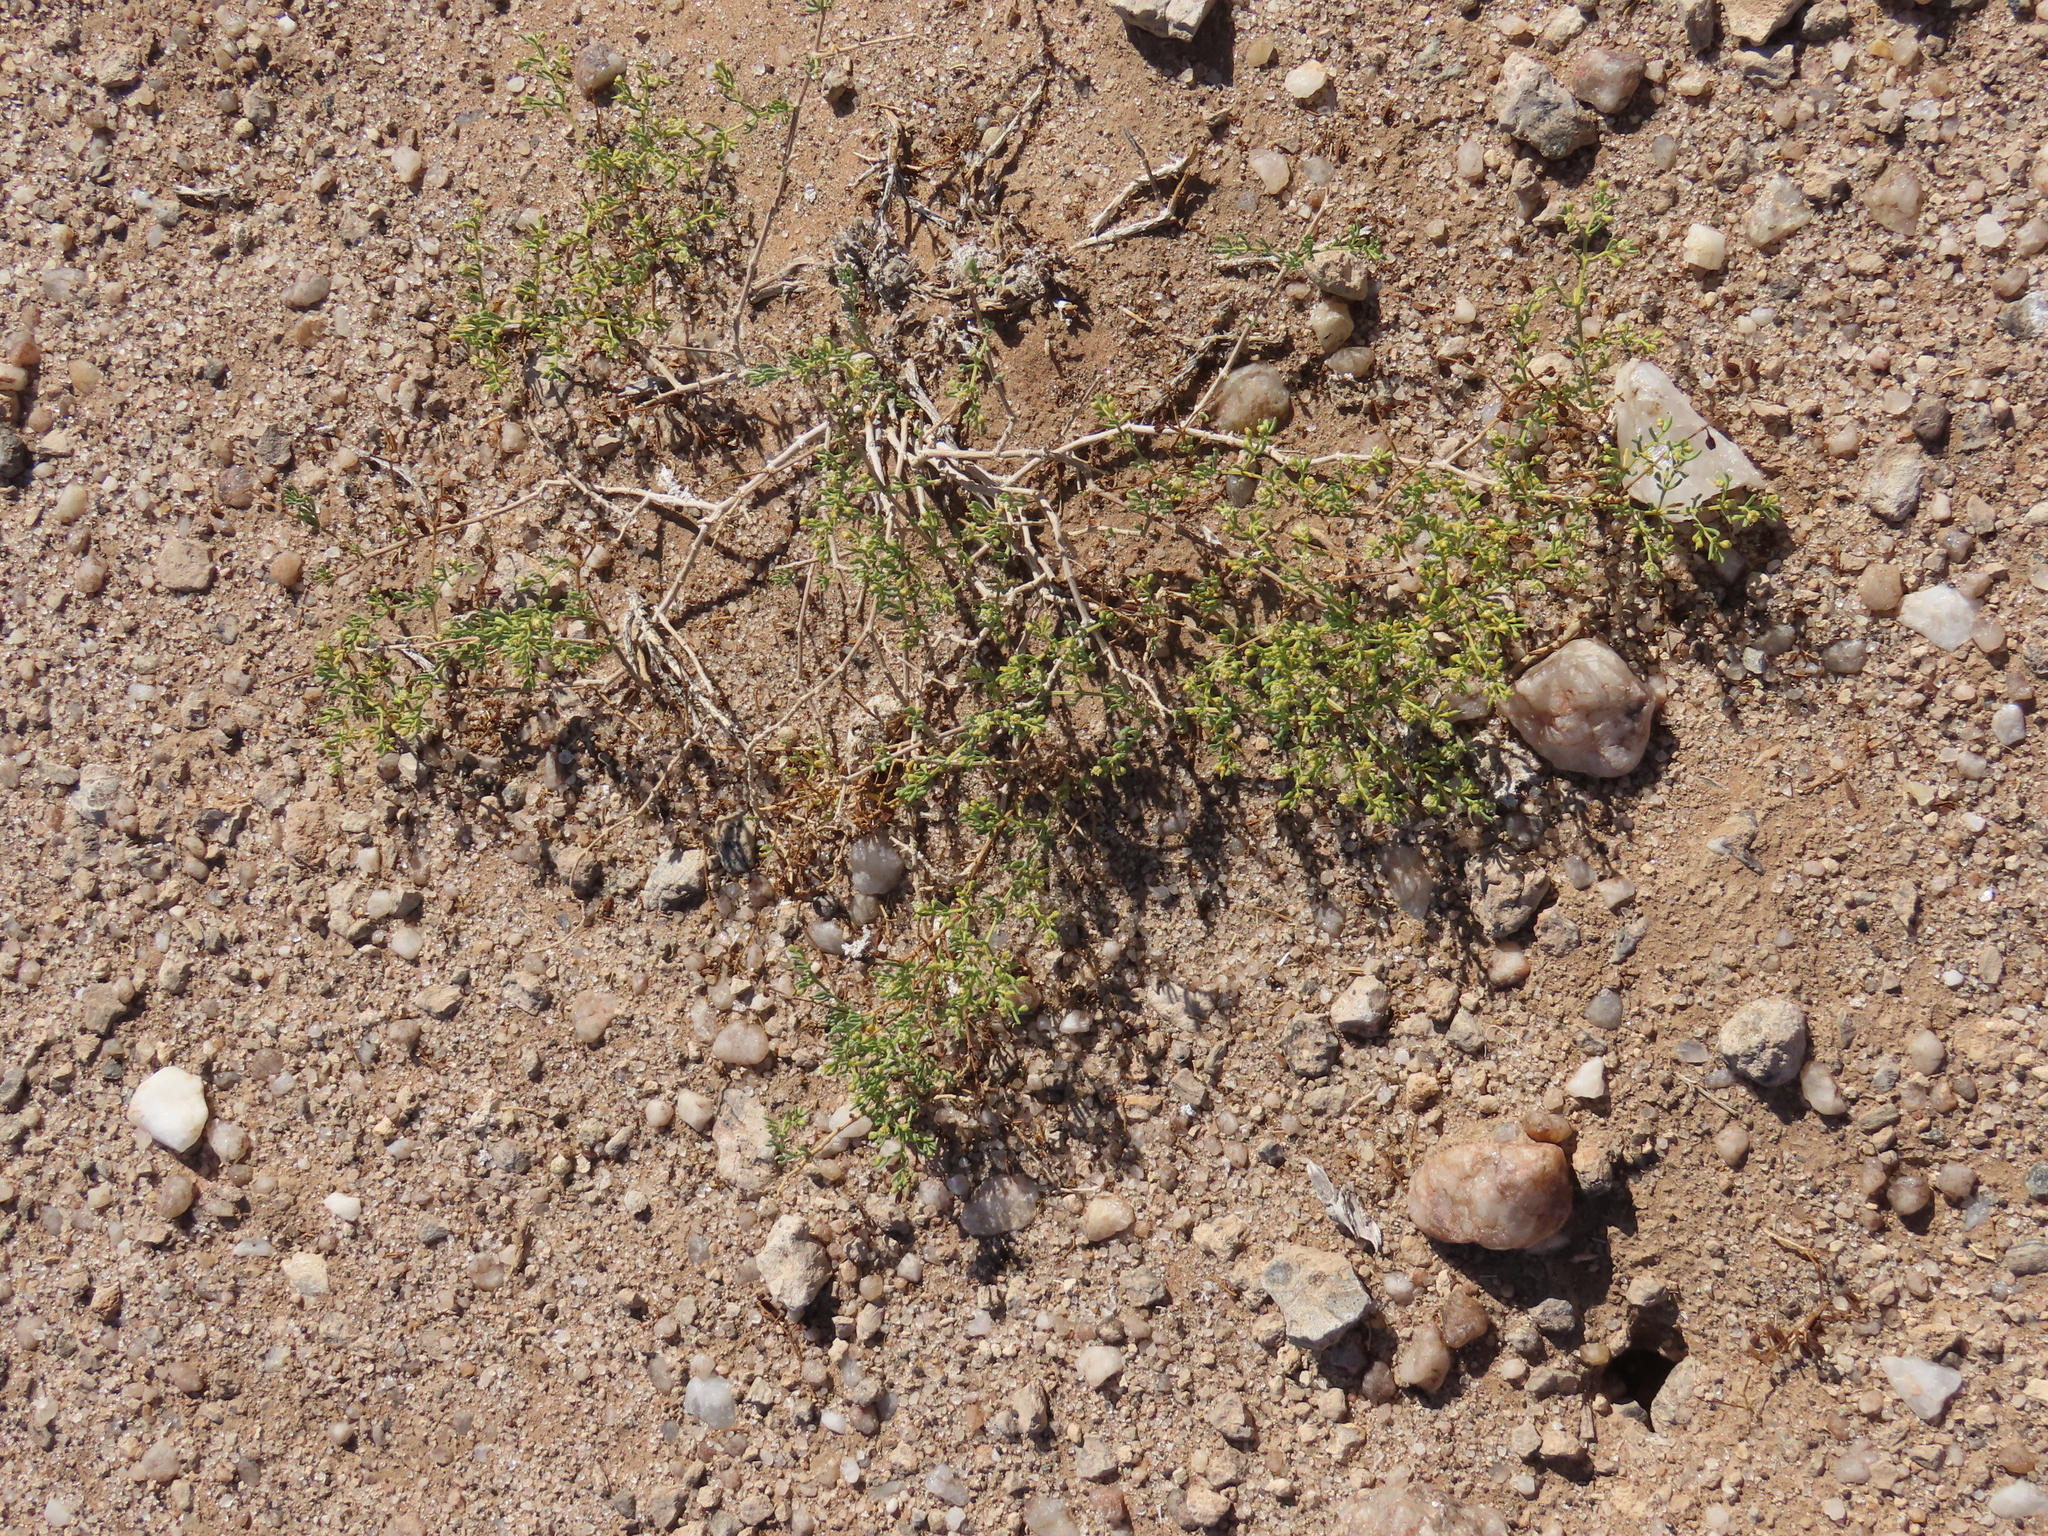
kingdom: Plantae
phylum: Tracheophyta
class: Magnoliopsida
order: Zygophyllales
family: Zygophyllaceae
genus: Tetraena
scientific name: Tetraena cylindrifolia
